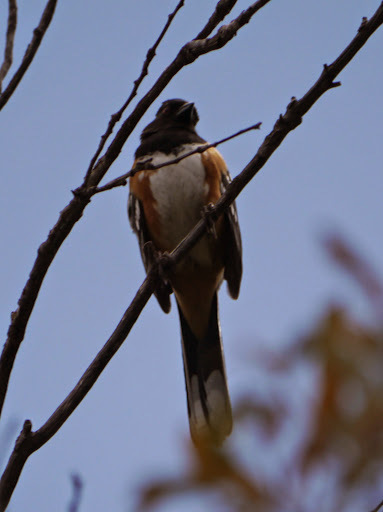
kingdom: Animalia
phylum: Chordata
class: Aves
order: Passeriformes
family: Passerellidae
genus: Pipilo
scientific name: Pipilo maculatus
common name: Spotted towhee
